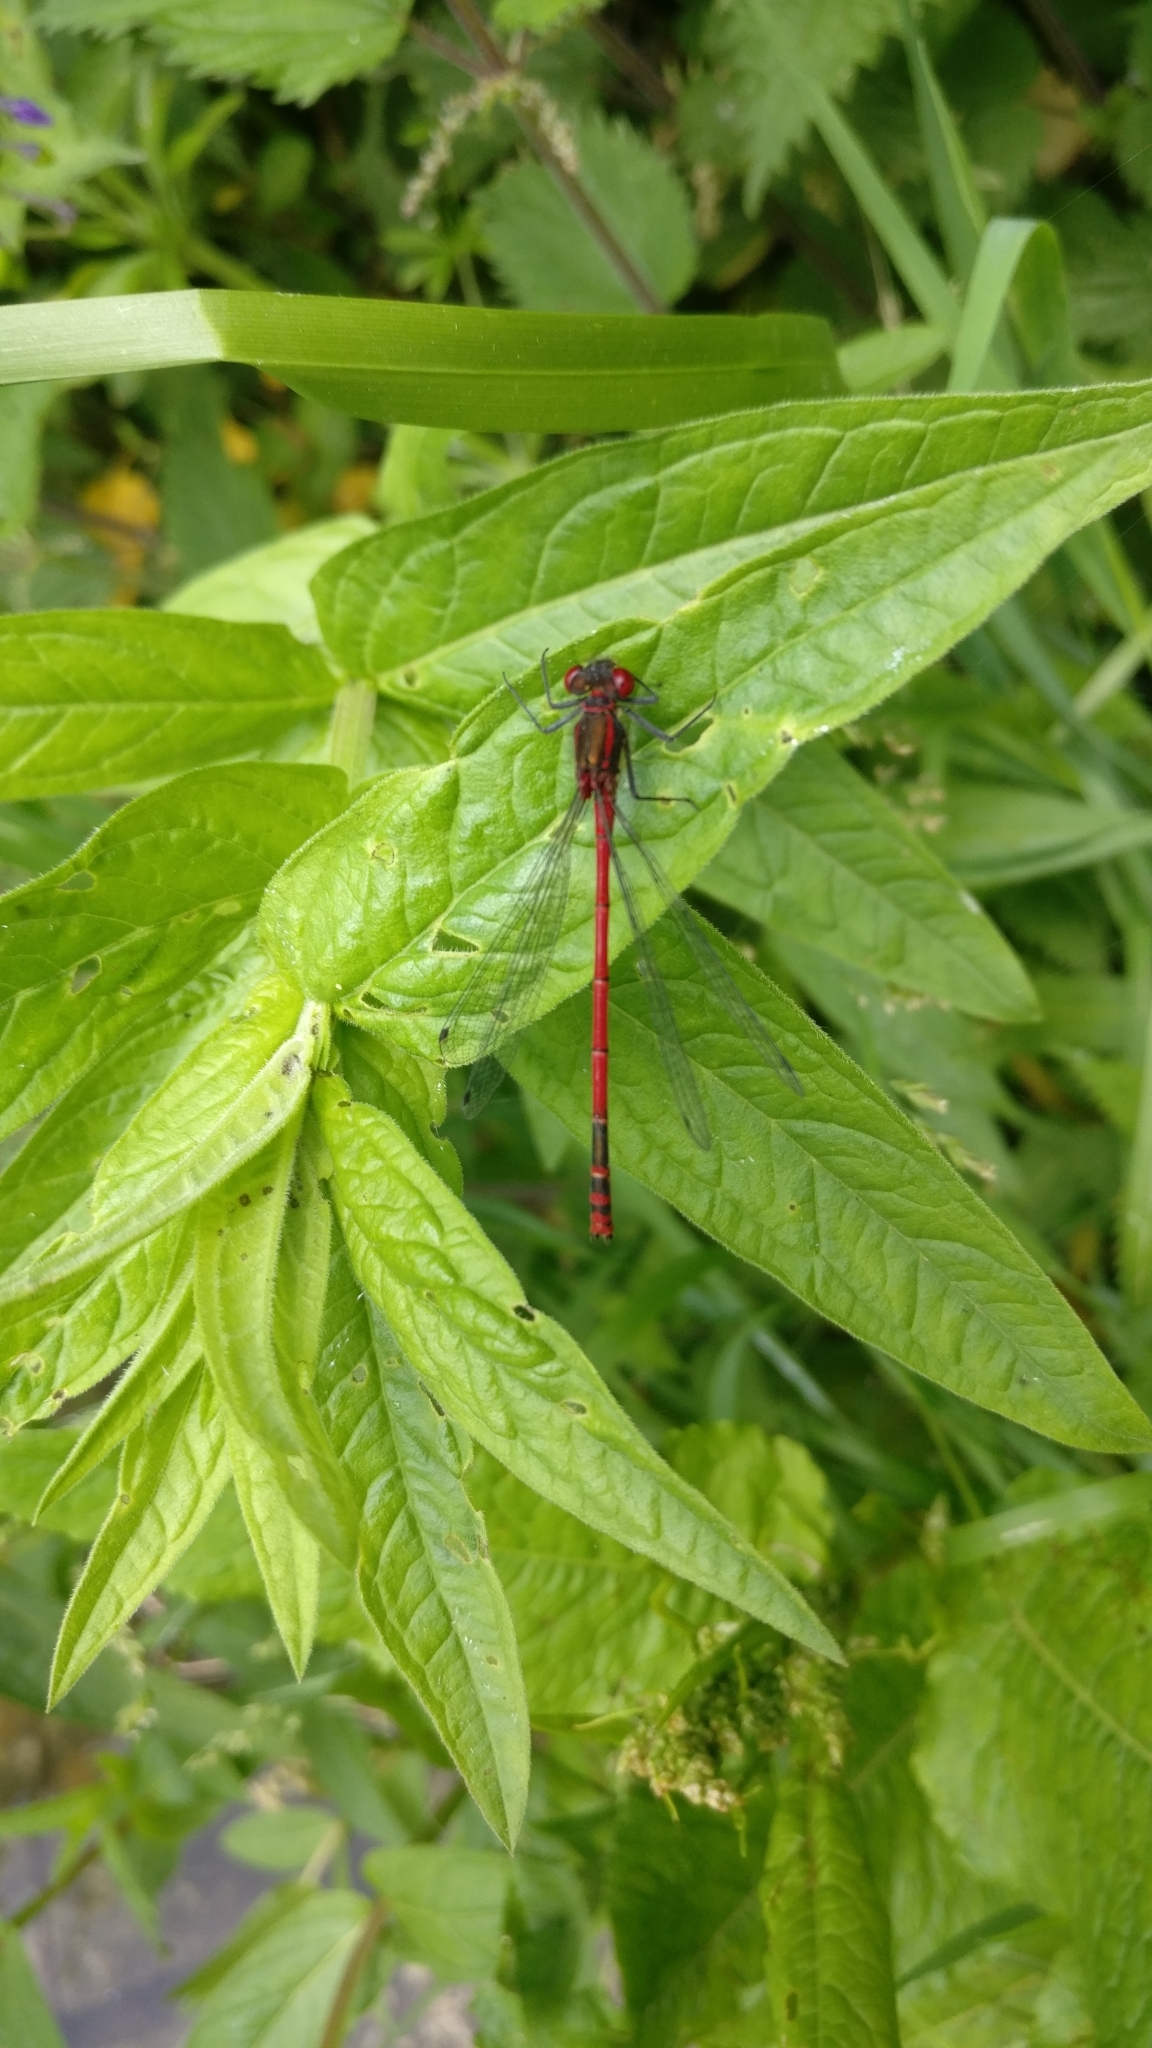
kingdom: Animalia
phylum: Arthropoda
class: Insecta
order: Odonata
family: Coenagrionidae
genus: Pyrrhosoma
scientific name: Pyrrhosoma nymphula
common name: Large red damsel
